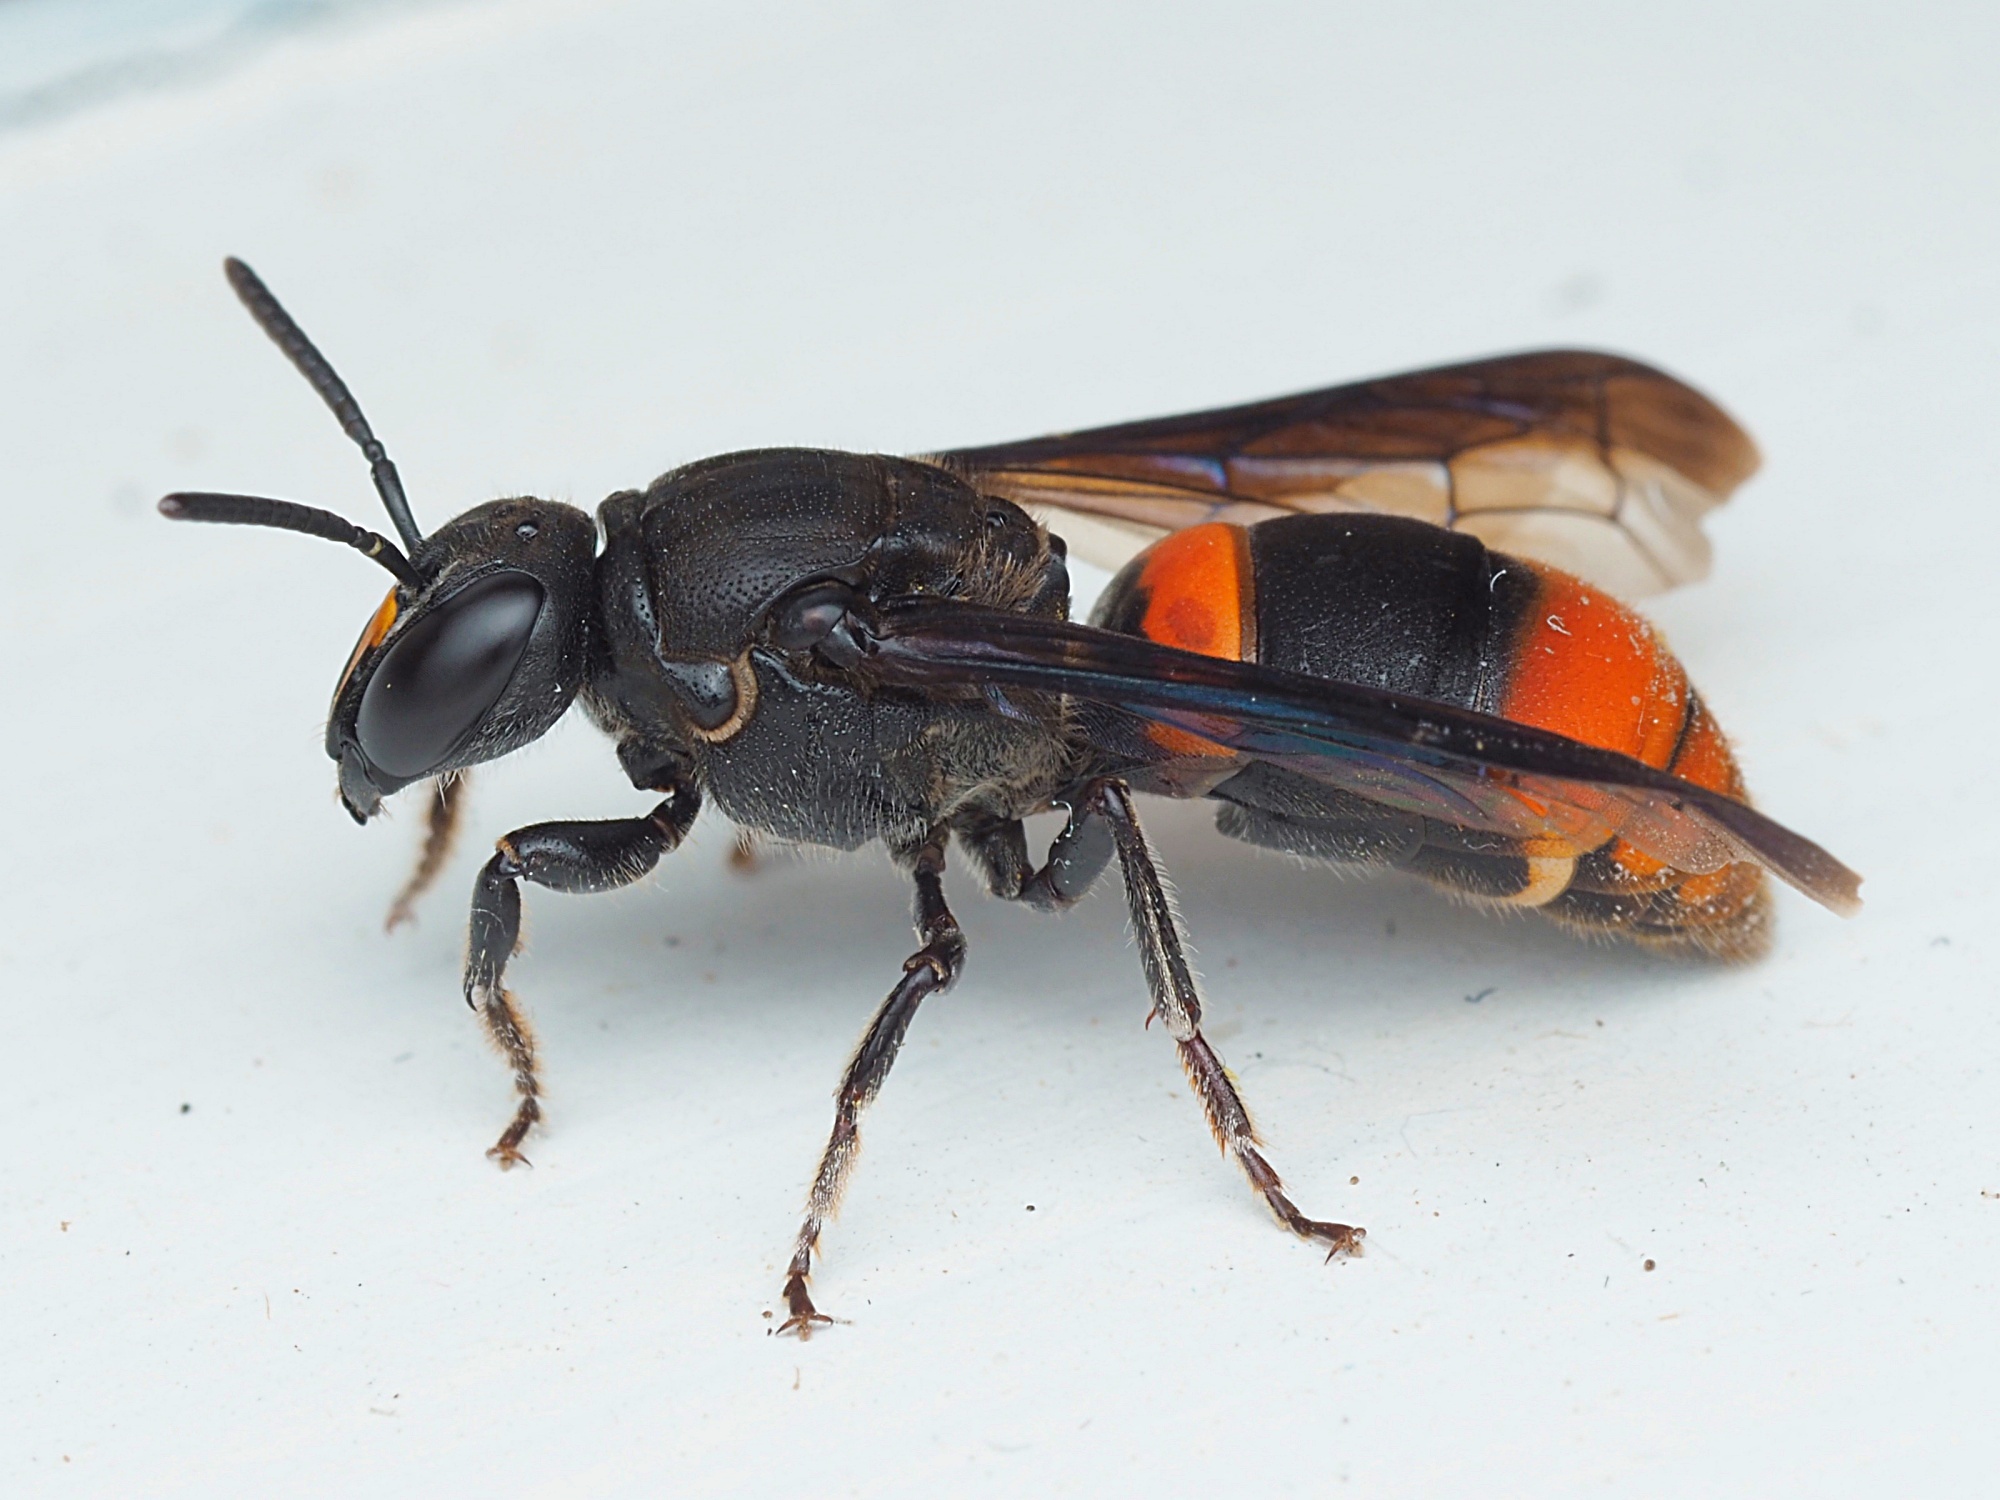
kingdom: Animalia
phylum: Arthropoda
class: Insecta
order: Hymenoptera
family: Colletidae
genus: Hyleoides
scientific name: Hyleoides concinna
